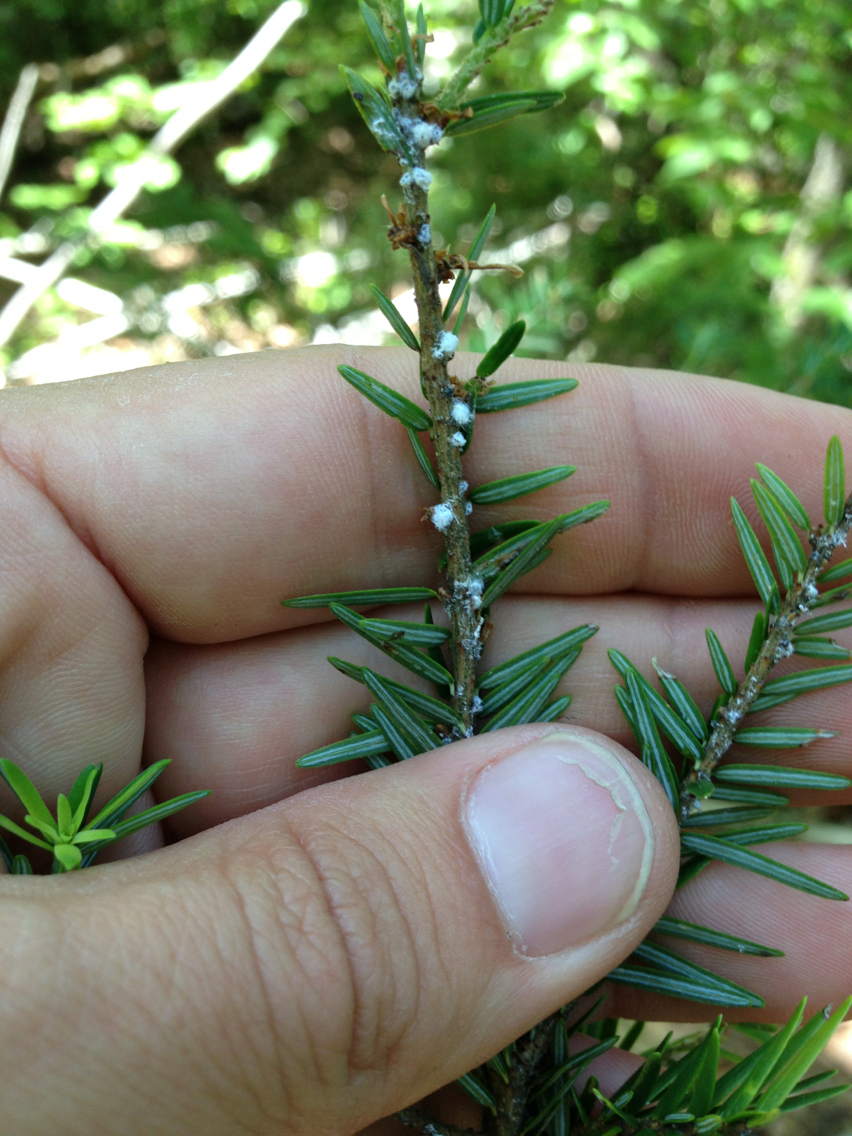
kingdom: Animalia
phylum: Arthropoda
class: Insecta
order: Hemiptera
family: Adelgidae
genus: Adelges
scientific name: Adelges tsugae
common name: Hemlock woolly adelgid
